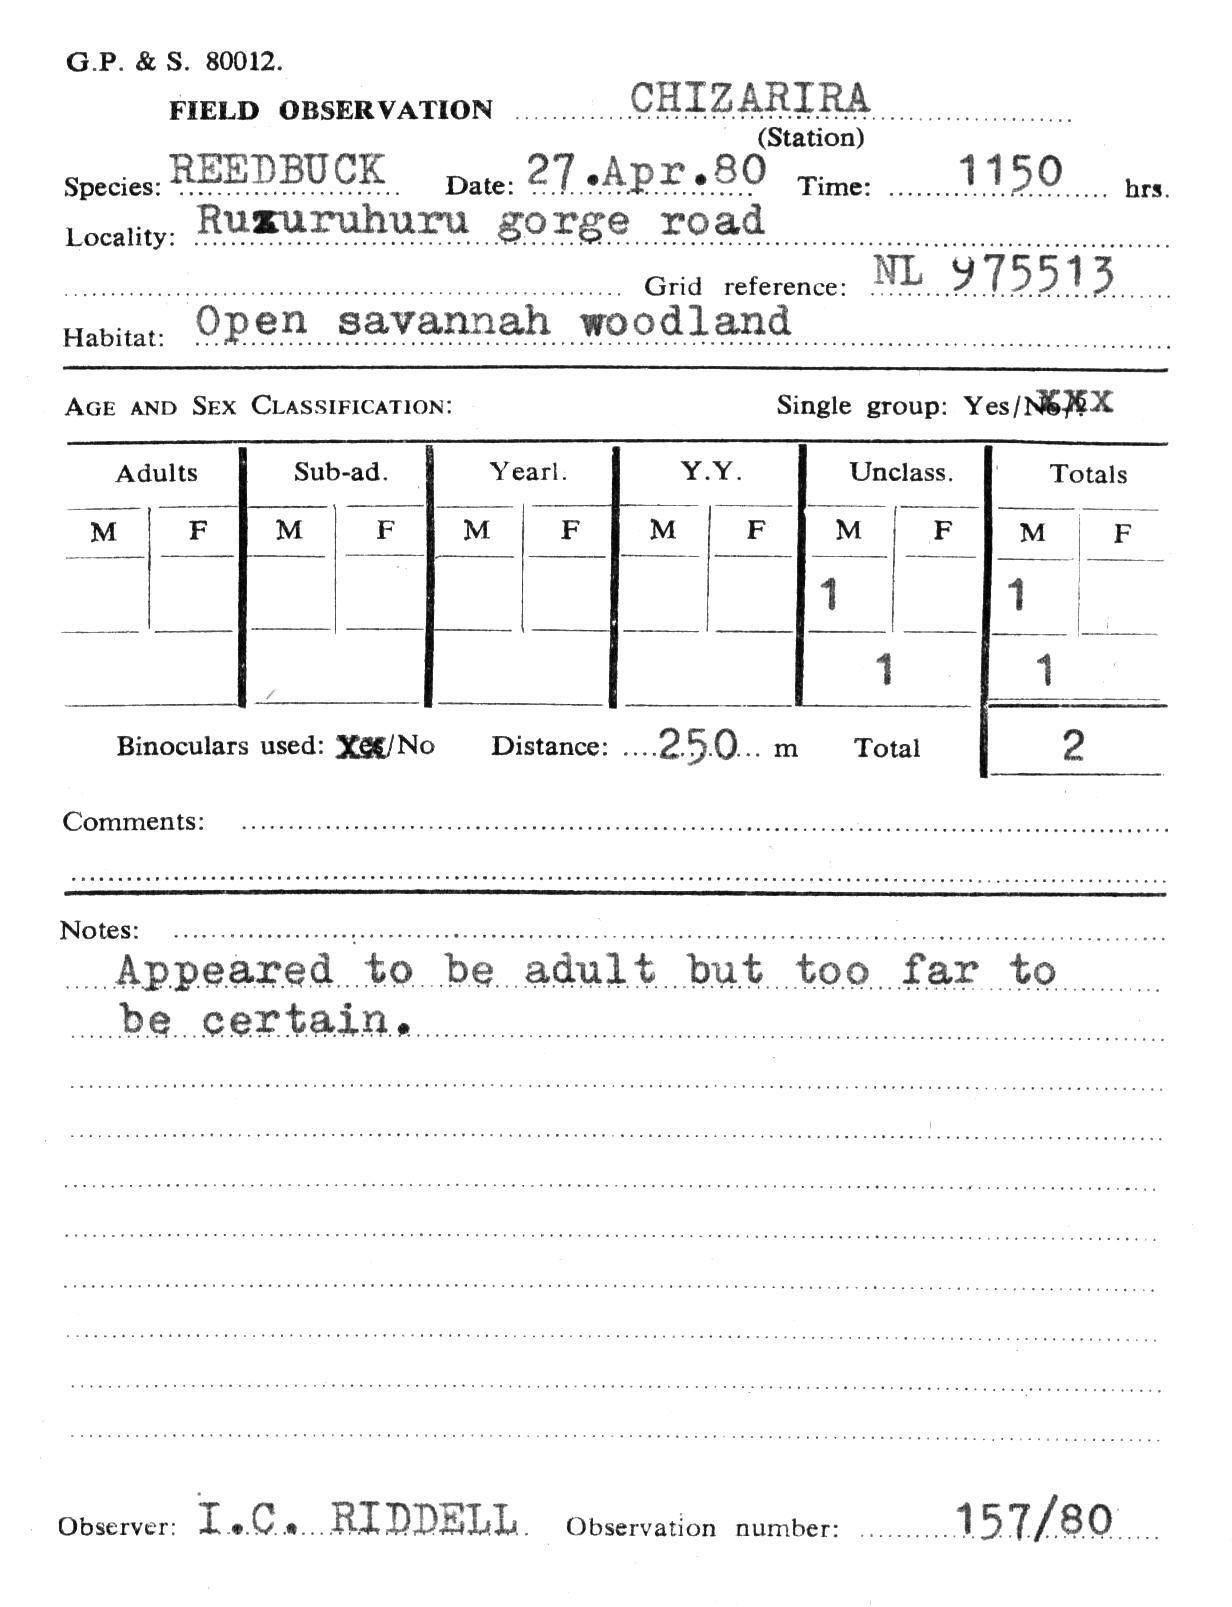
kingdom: Animalia
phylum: Chordata
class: Mammalia
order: Artiodactyla
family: Bovidae
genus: Redunca
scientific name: Redunca arundinum
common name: Southern reedbuck
